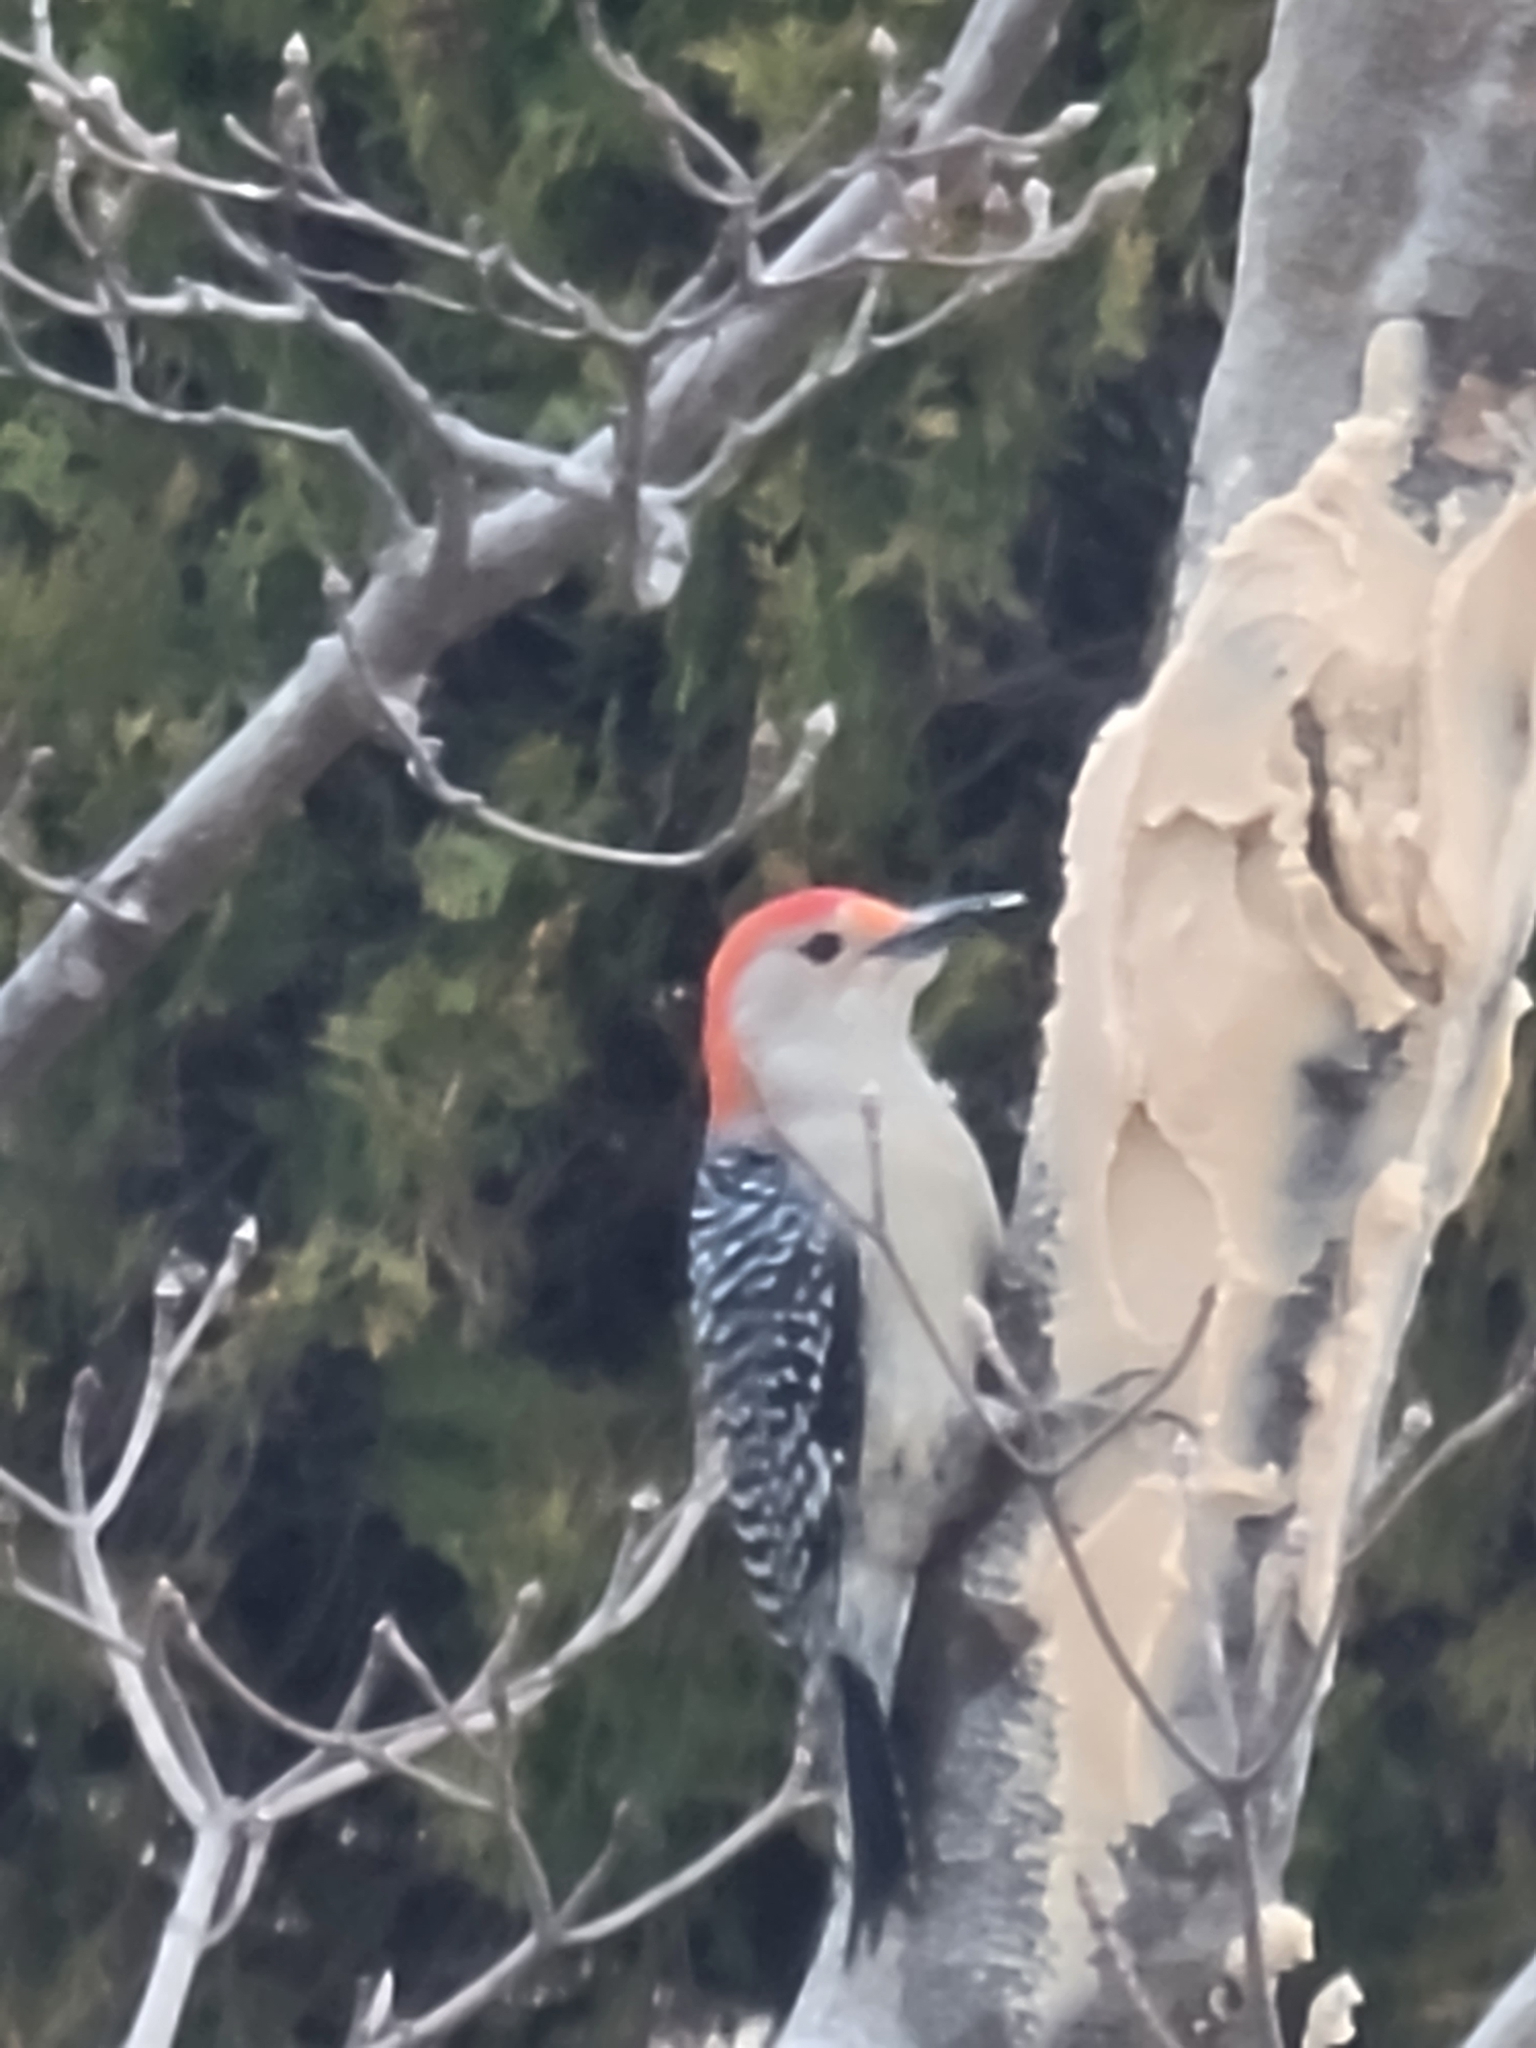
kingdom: Animalia
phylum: Chordata
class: Aves
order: Piciformes
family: Picidae
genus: Melanerpes
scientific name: Melanerpes carolinus
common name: Red-bellied woodpecker
